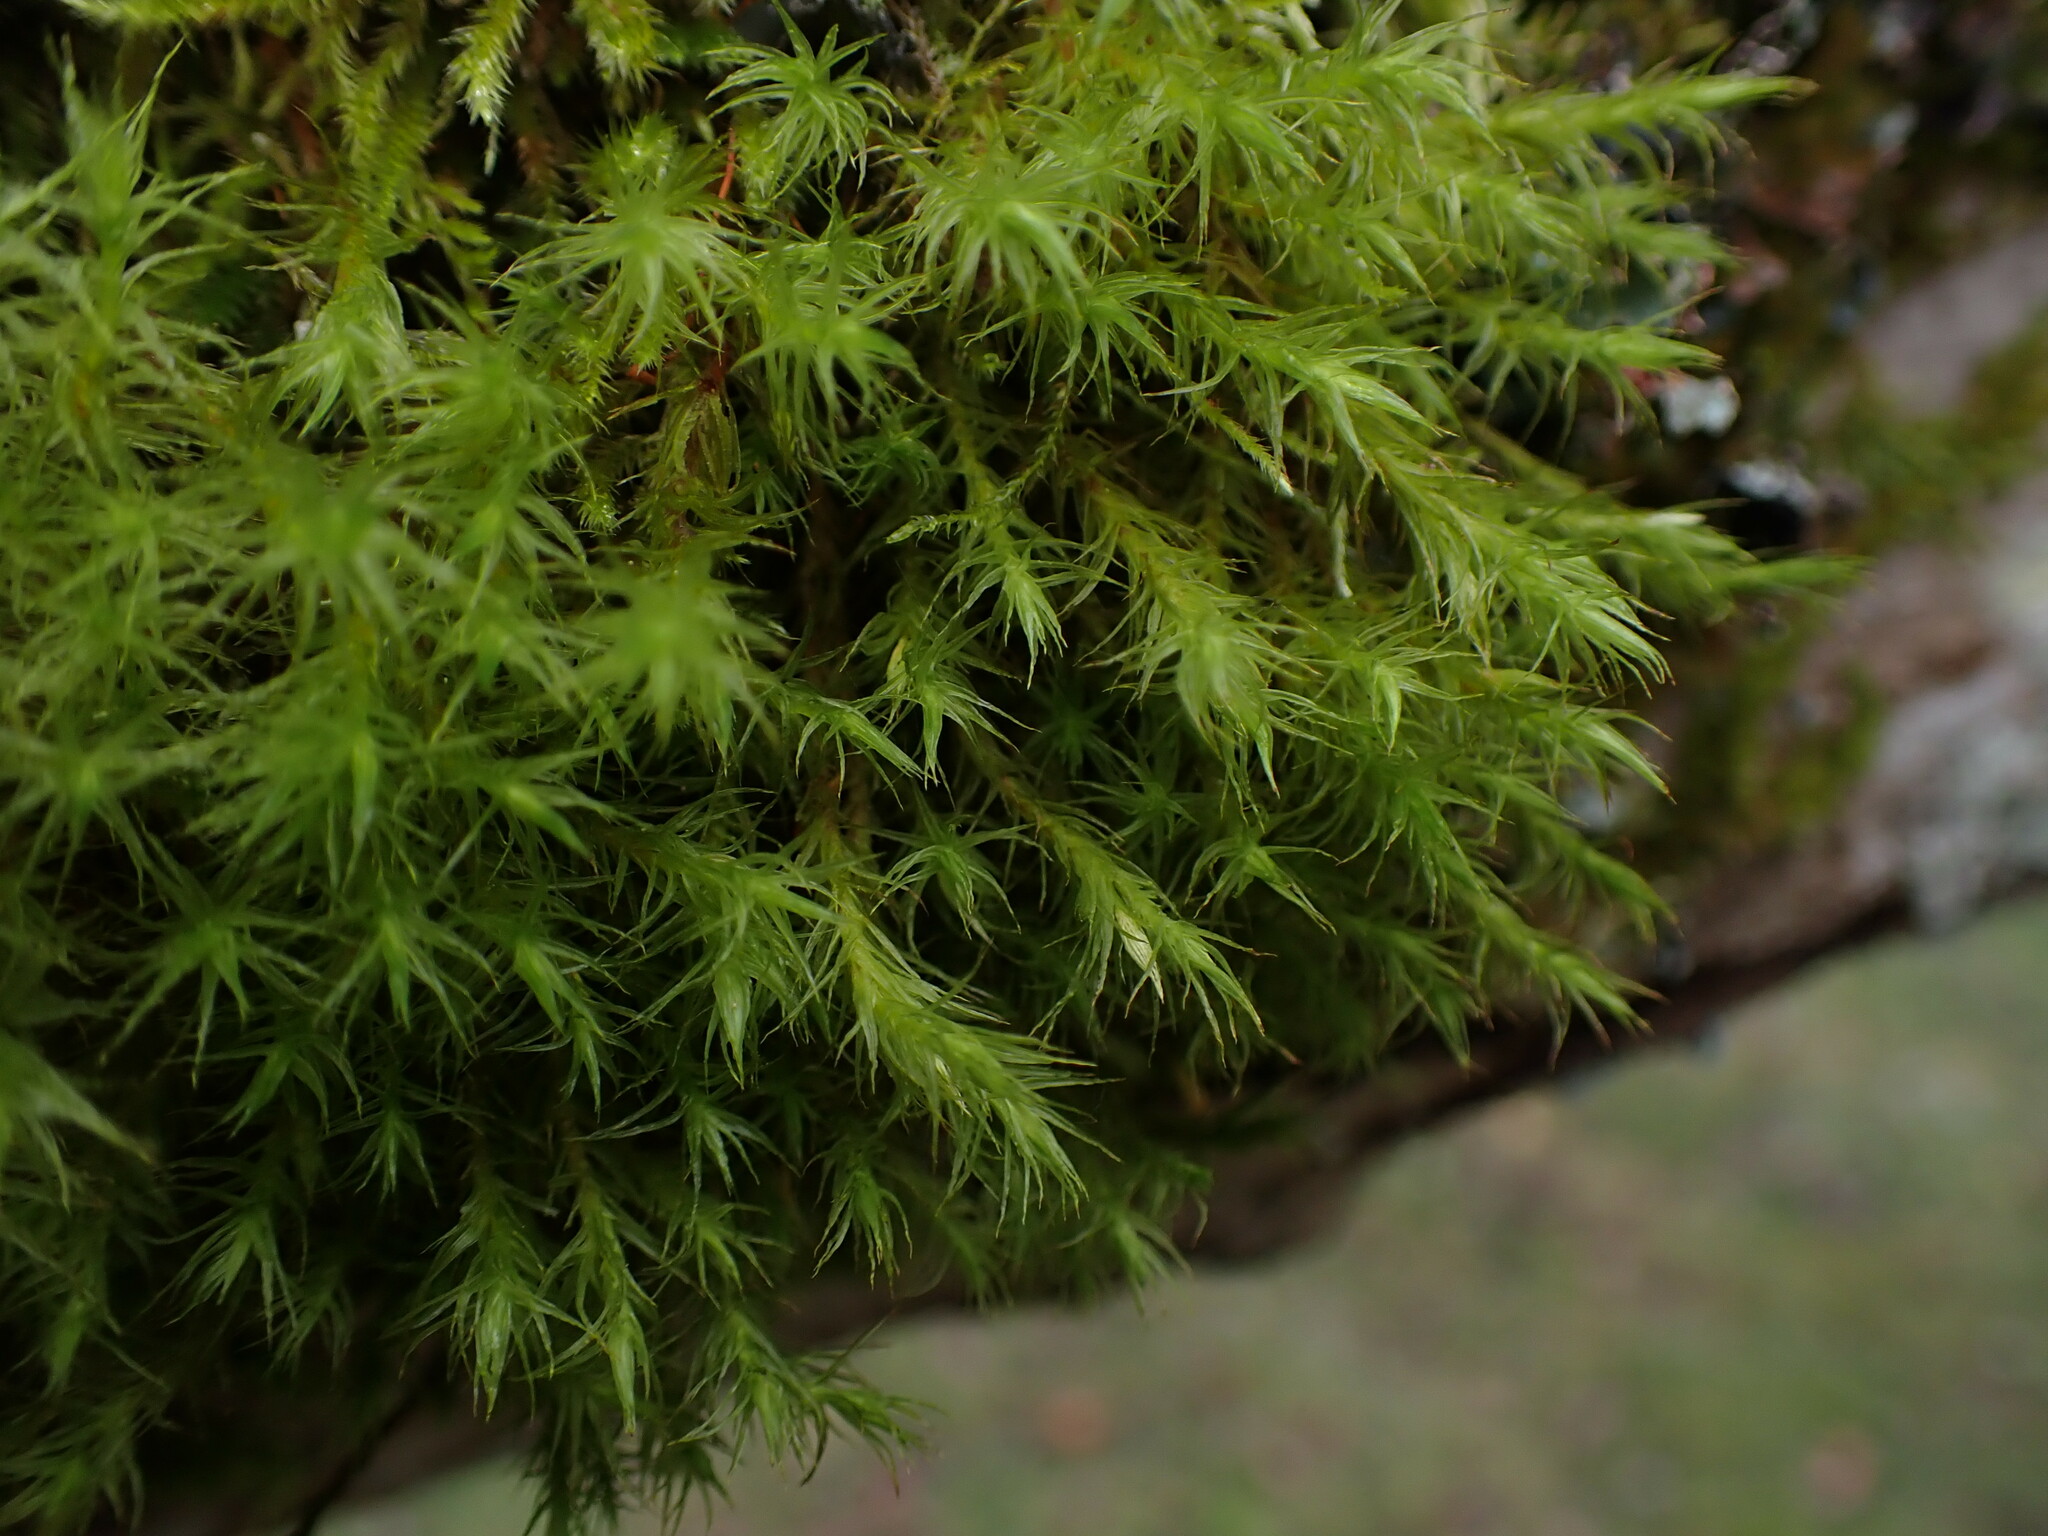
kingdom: Plantae
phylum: Bryophyta
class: Bryopsida
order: Orthotrichales
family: Orthotrichaceae
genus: Pulvigera
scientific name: Pulvigera papillosa
